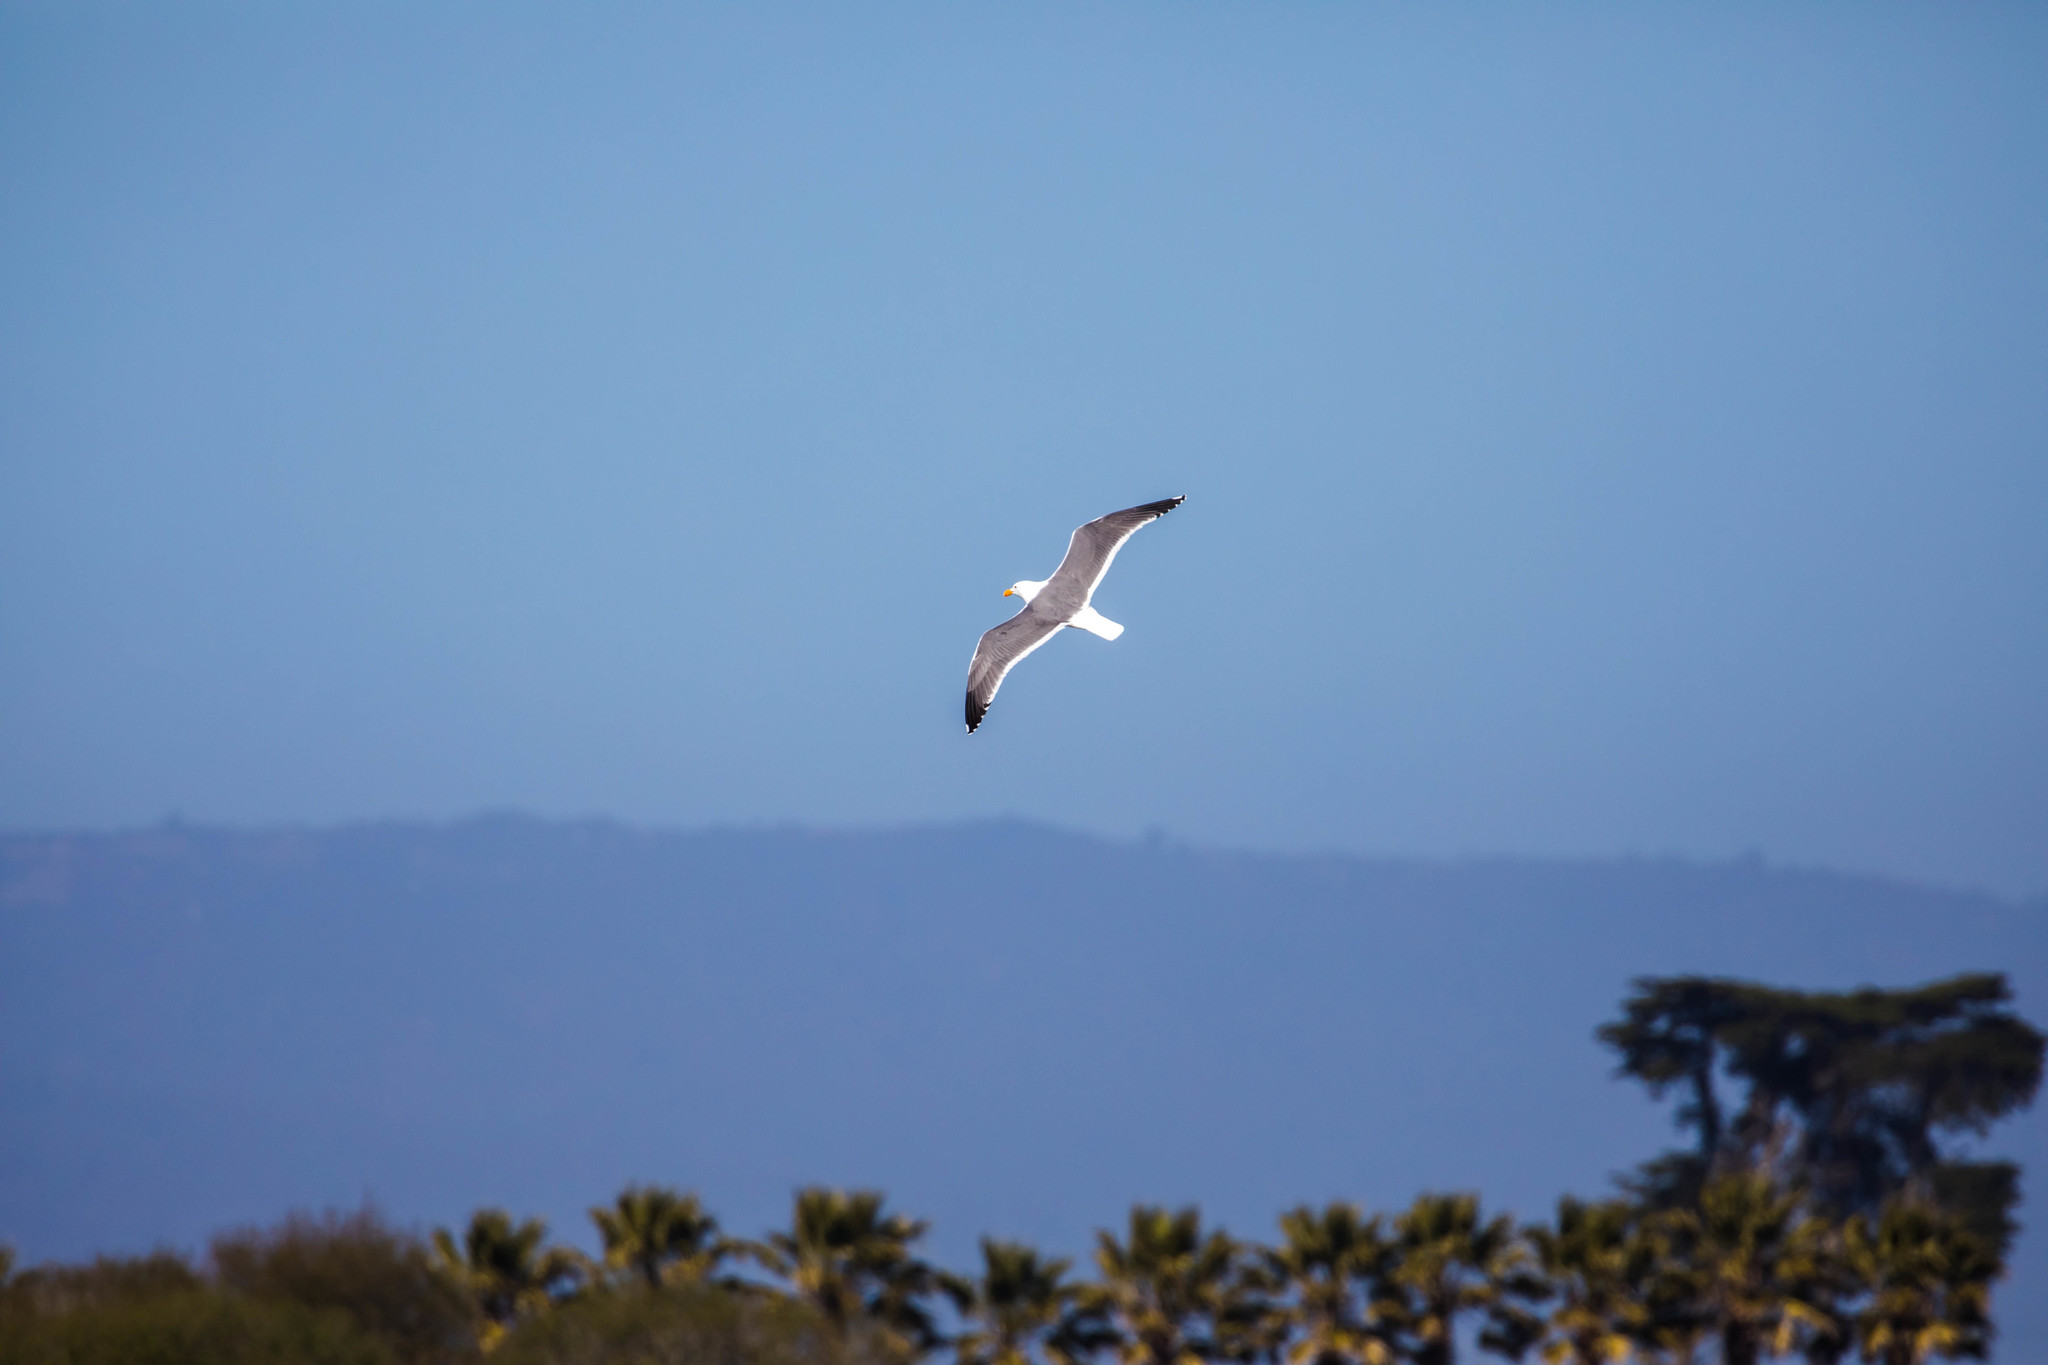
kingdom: Animalia
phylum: Chordata
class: Aves
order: Charadriiformes
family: Laridae
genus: Larus
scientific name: Larus occidentalis
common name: Western gull
